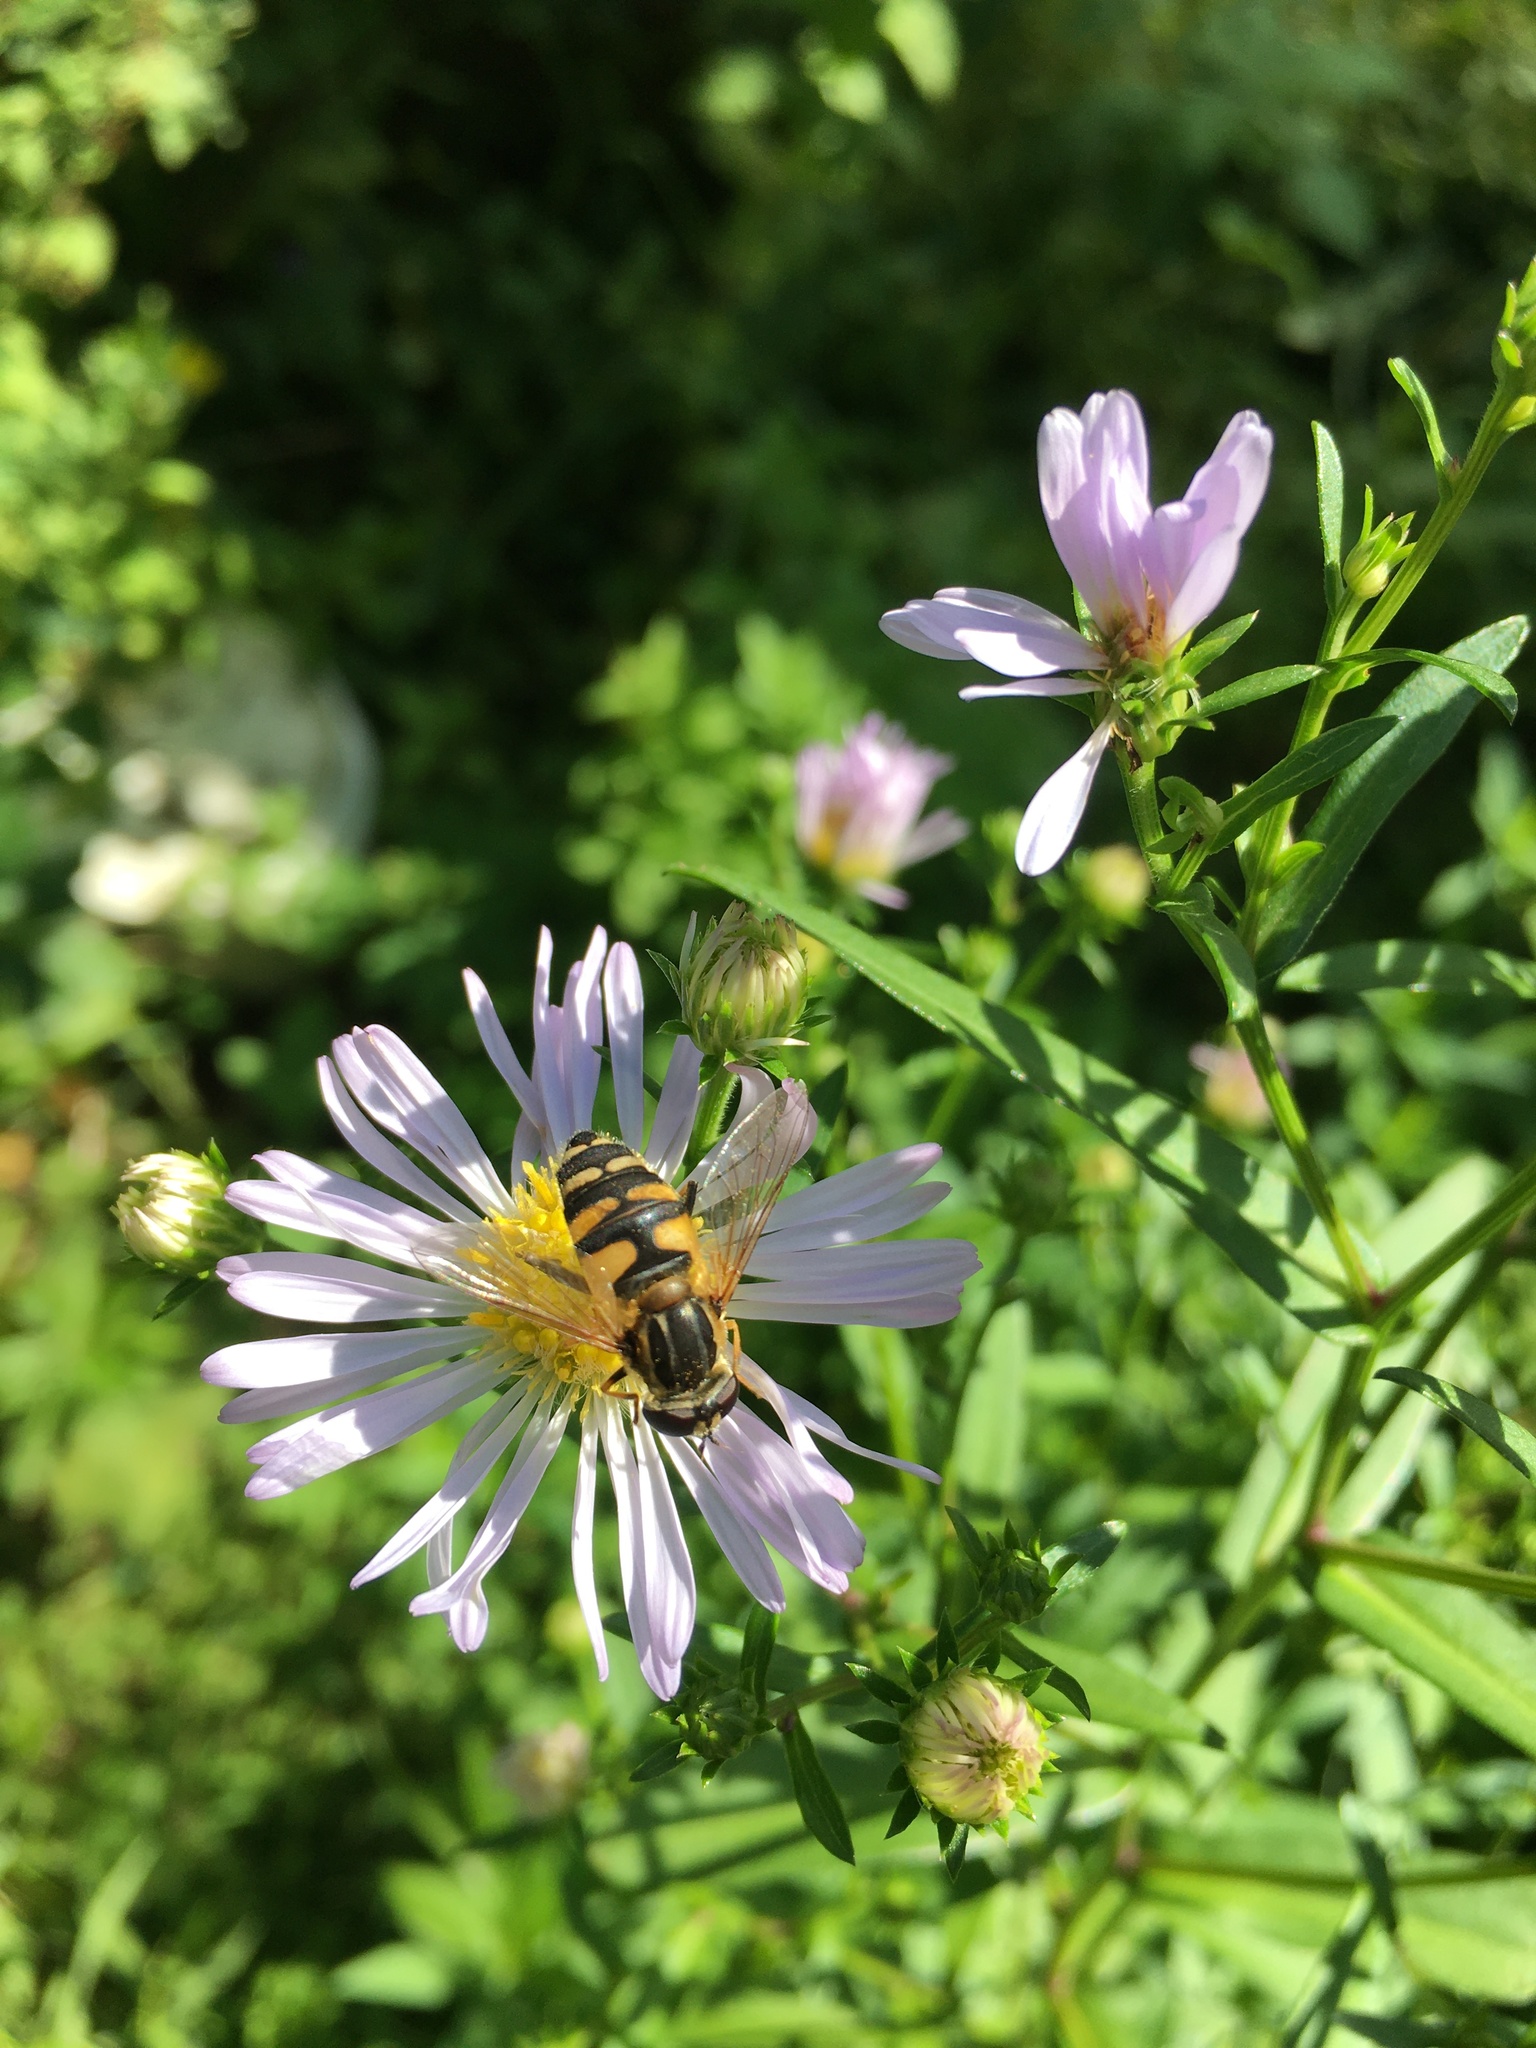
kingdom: Animalia
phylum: Arthropoda
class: Insecta
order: Diptera
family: Syrphidae
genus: Helophilus
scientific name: Helophilus affinis
